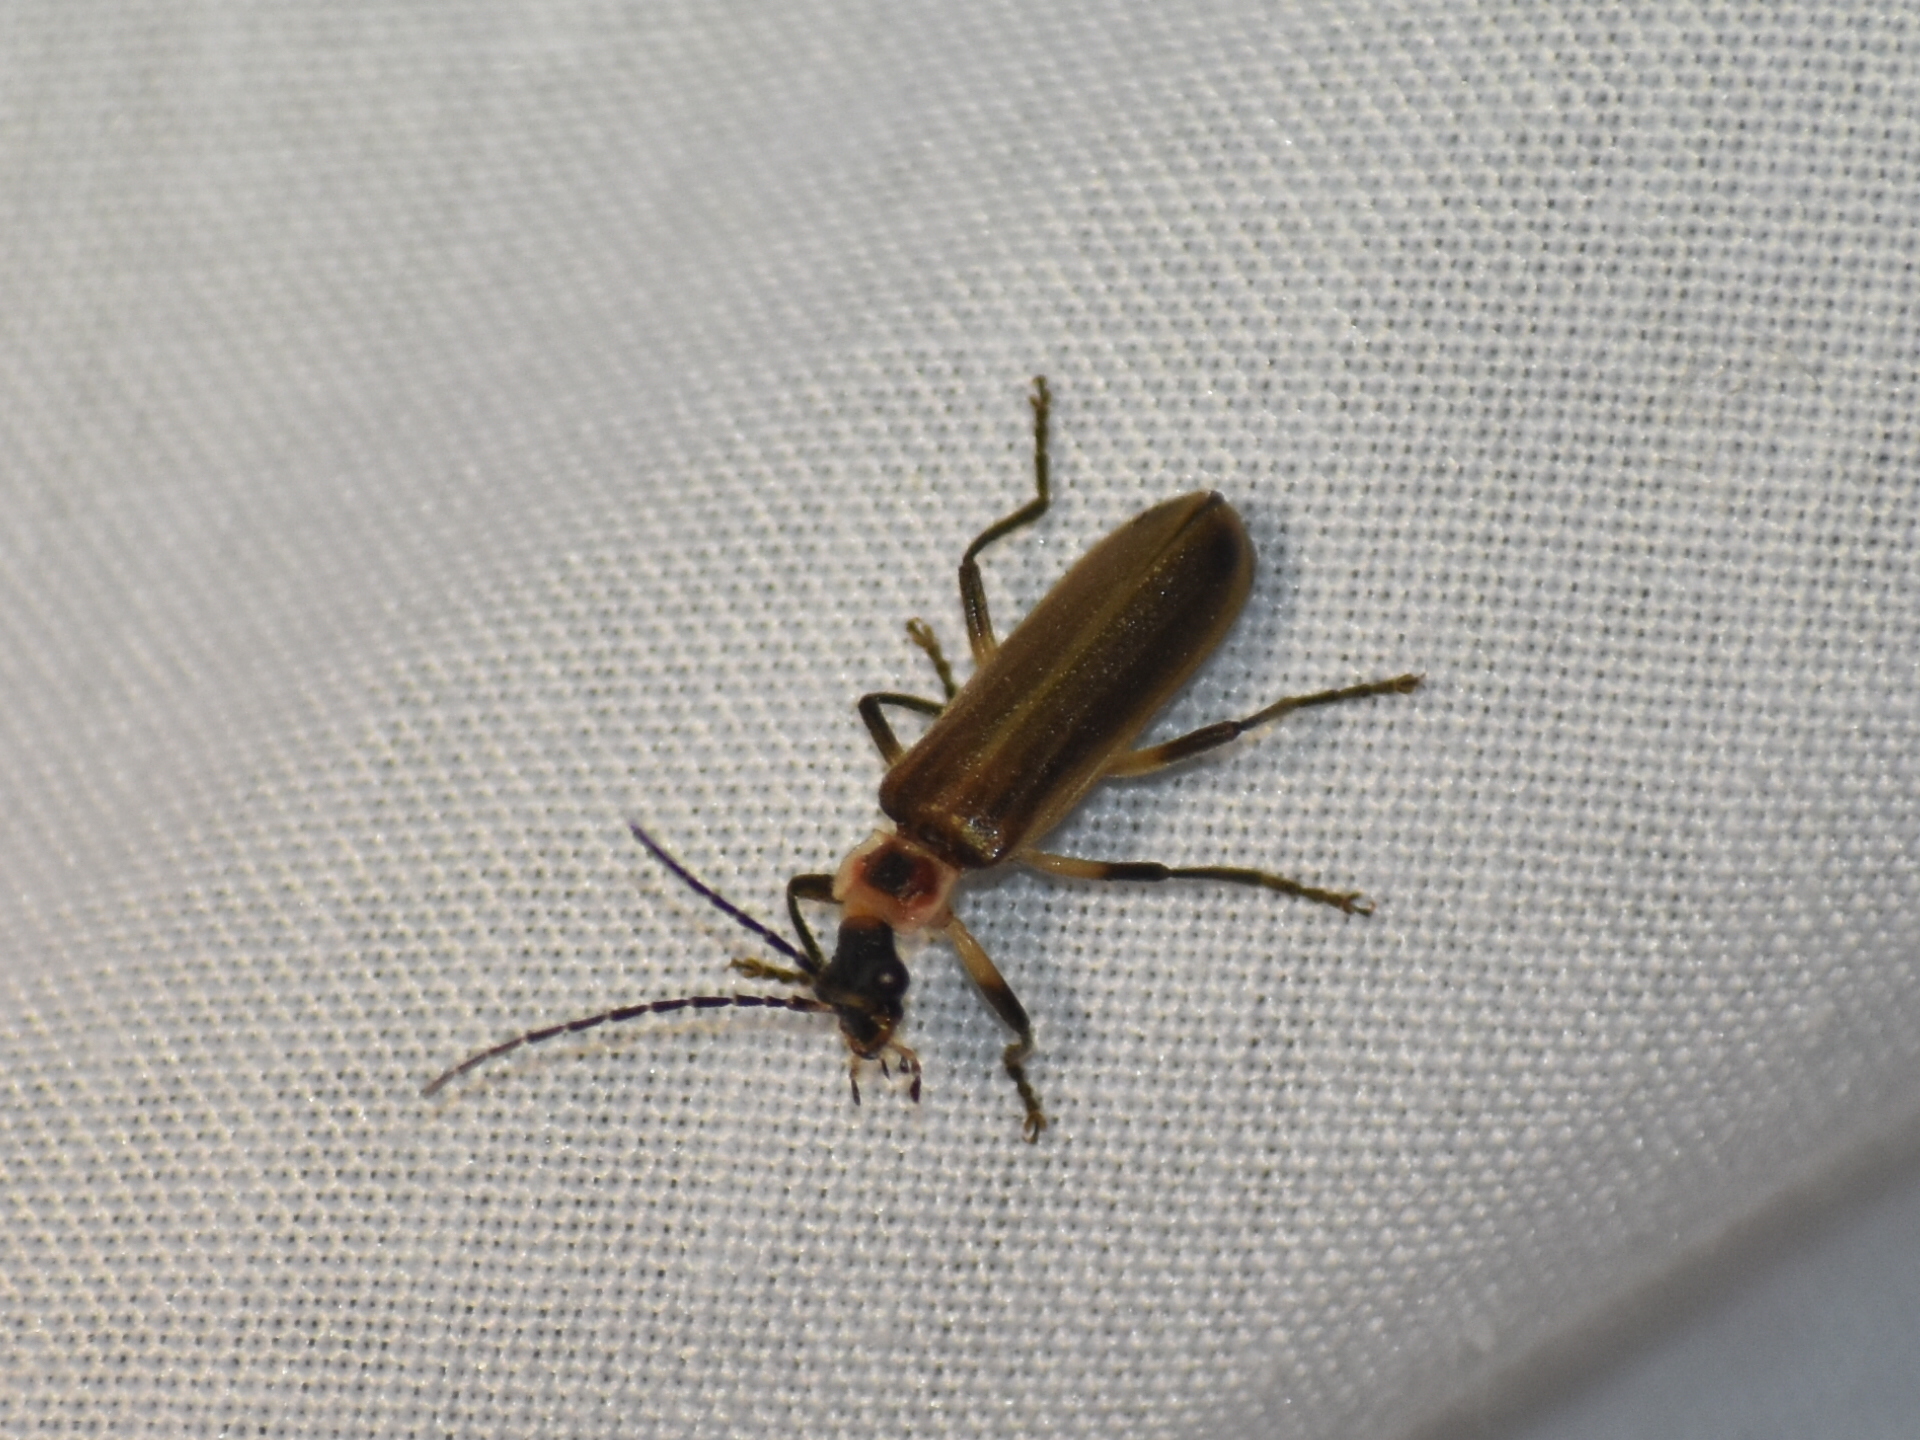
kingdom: Animalia
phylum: Arthropoda
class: Insecta
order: Coleoptera
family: Cantharidae
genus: Podabrus
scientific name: Podabrus appendiculatus
